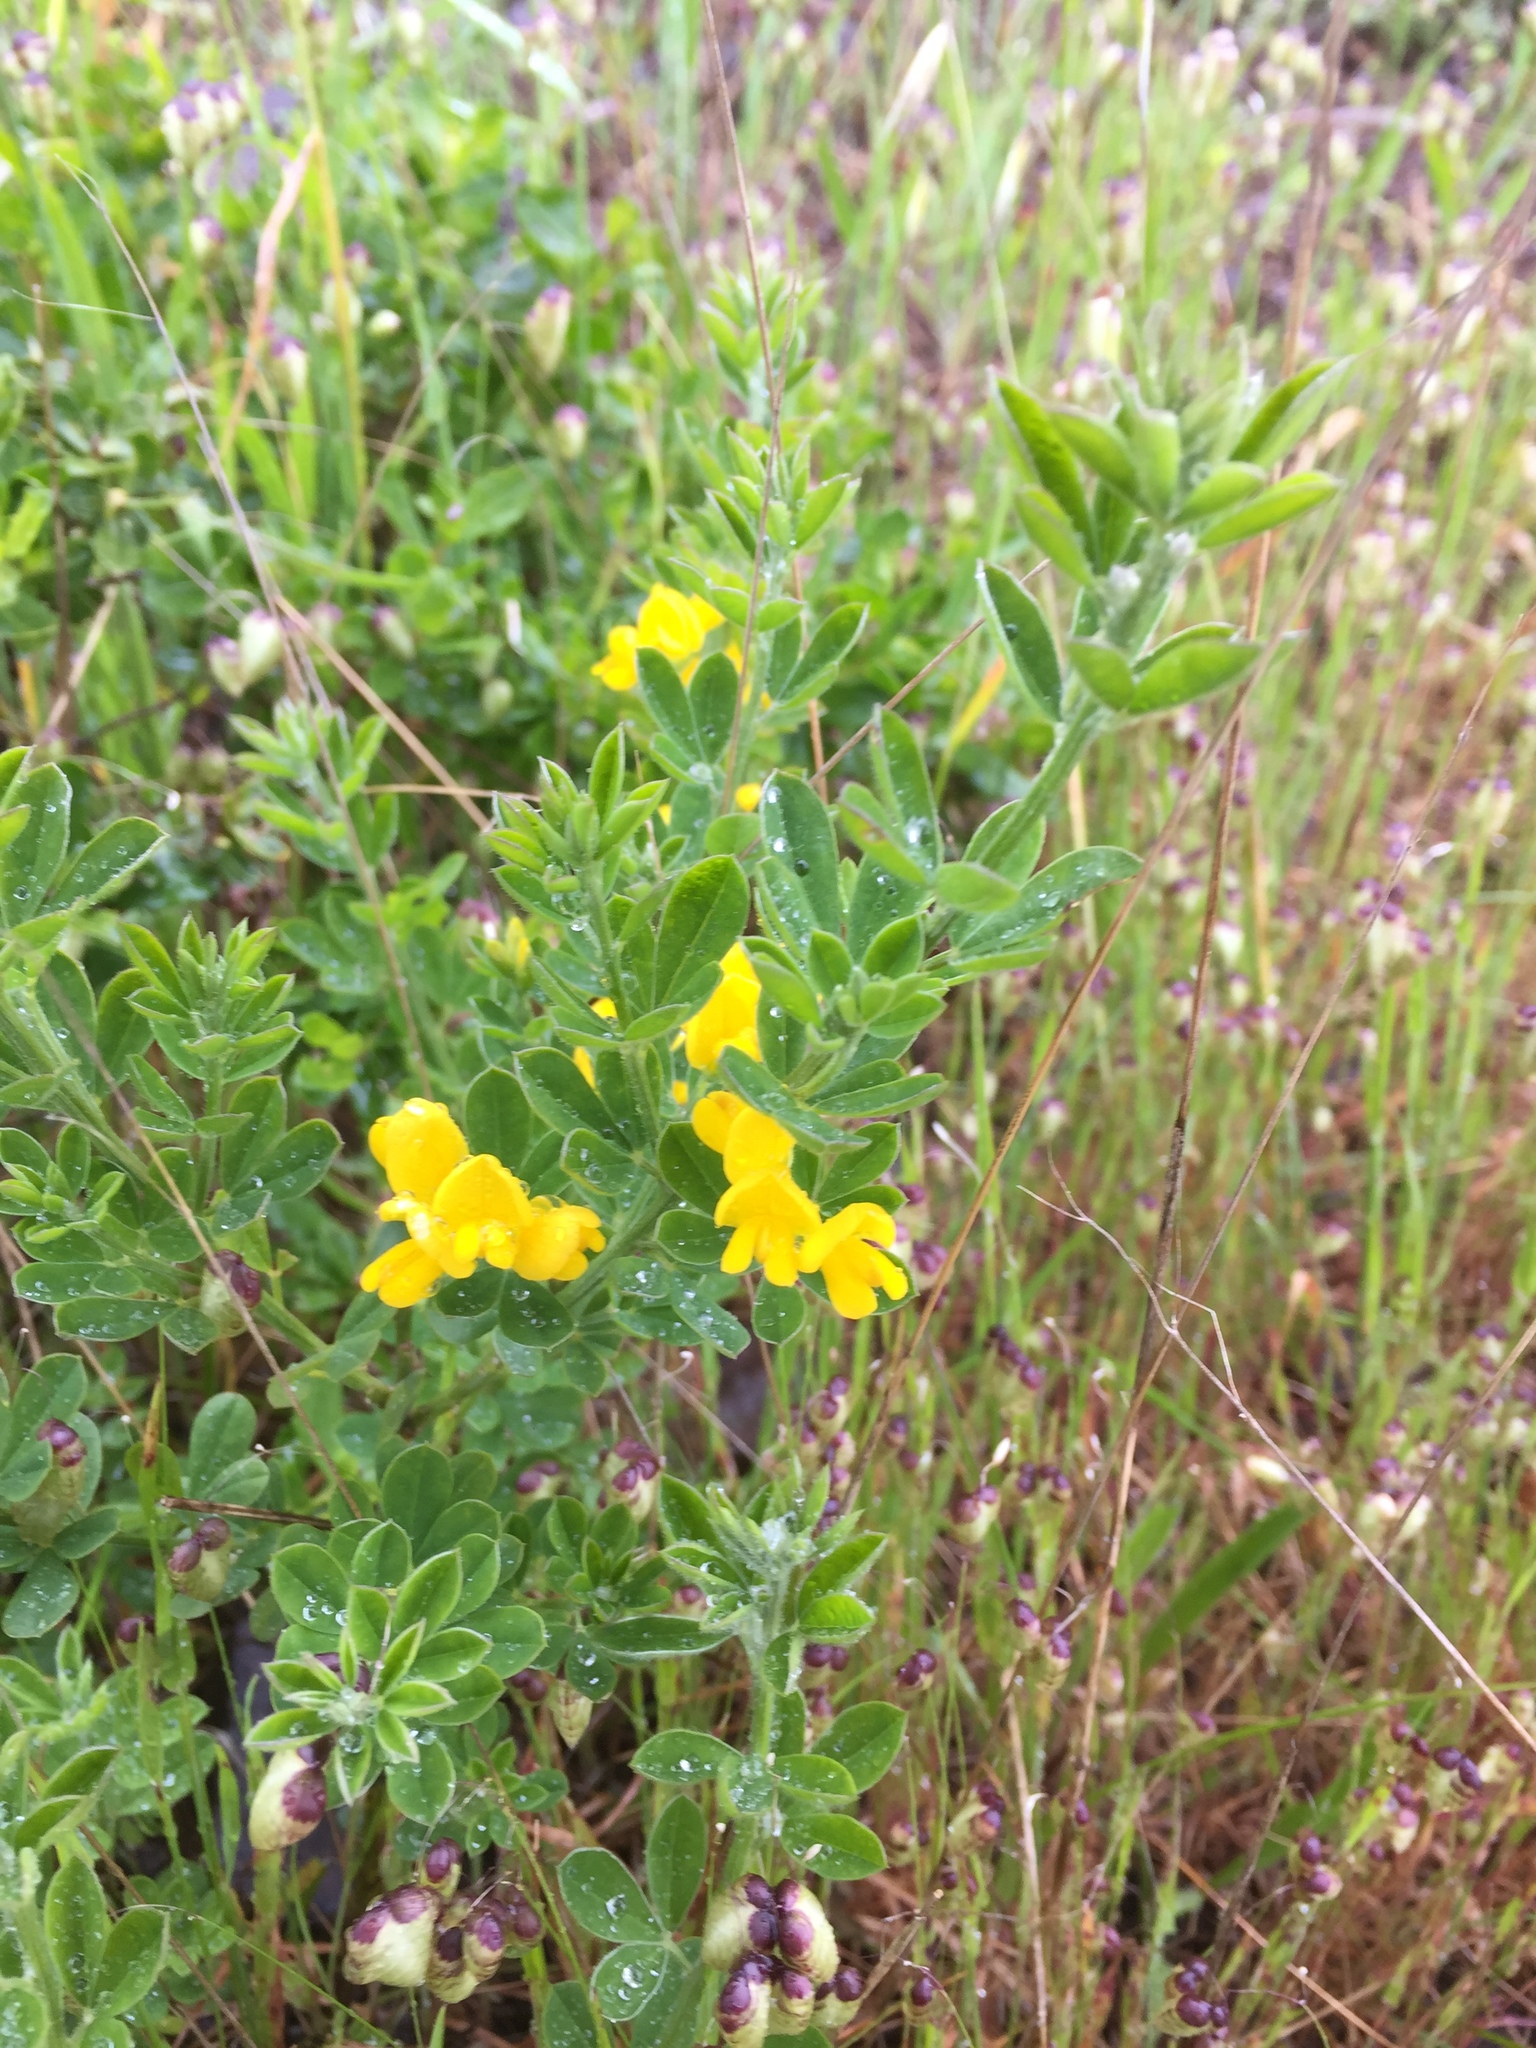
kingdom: Plantae
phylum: Tracheophyta
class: Magnoliopsida
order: Fabales
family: Fabaceae
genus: Genista
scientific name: Genista monspessulana
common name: Montpellier broom
